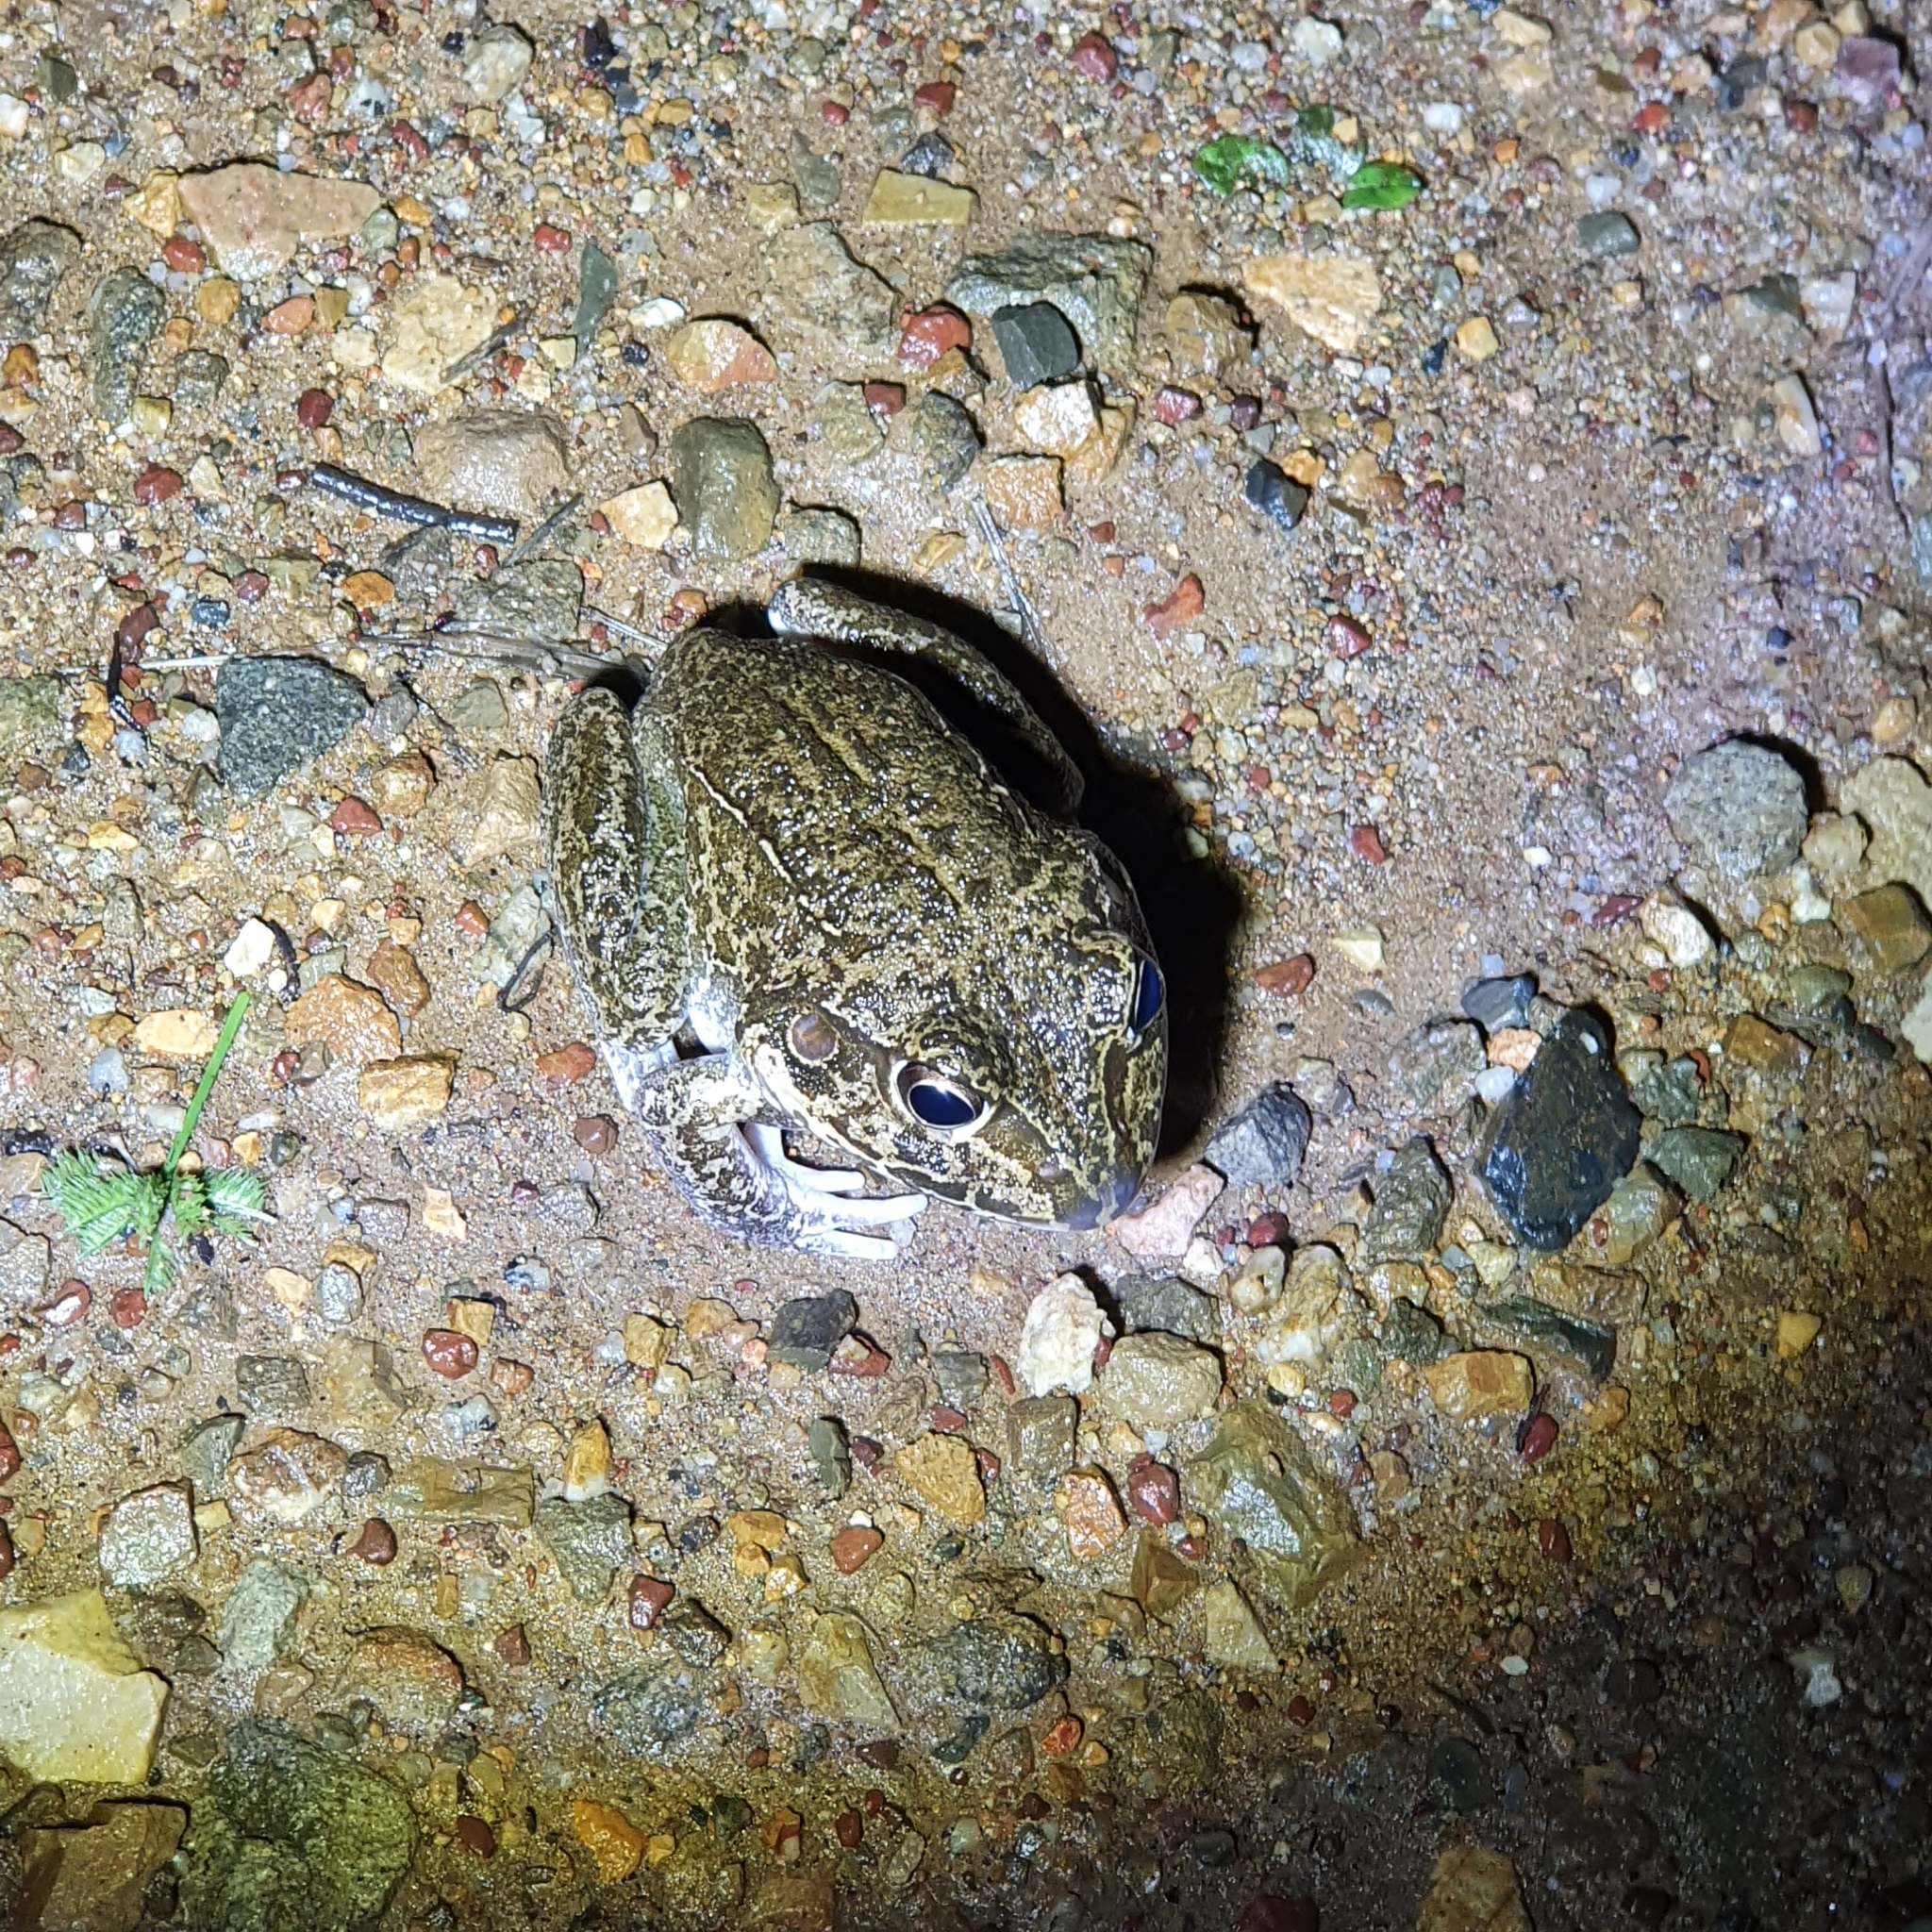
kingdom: Animalia
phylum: Chordata
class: Amphibia
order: Anura
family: Pelodryadidae
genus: Ranoidea
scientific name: Ranoidea novaehollandiae
